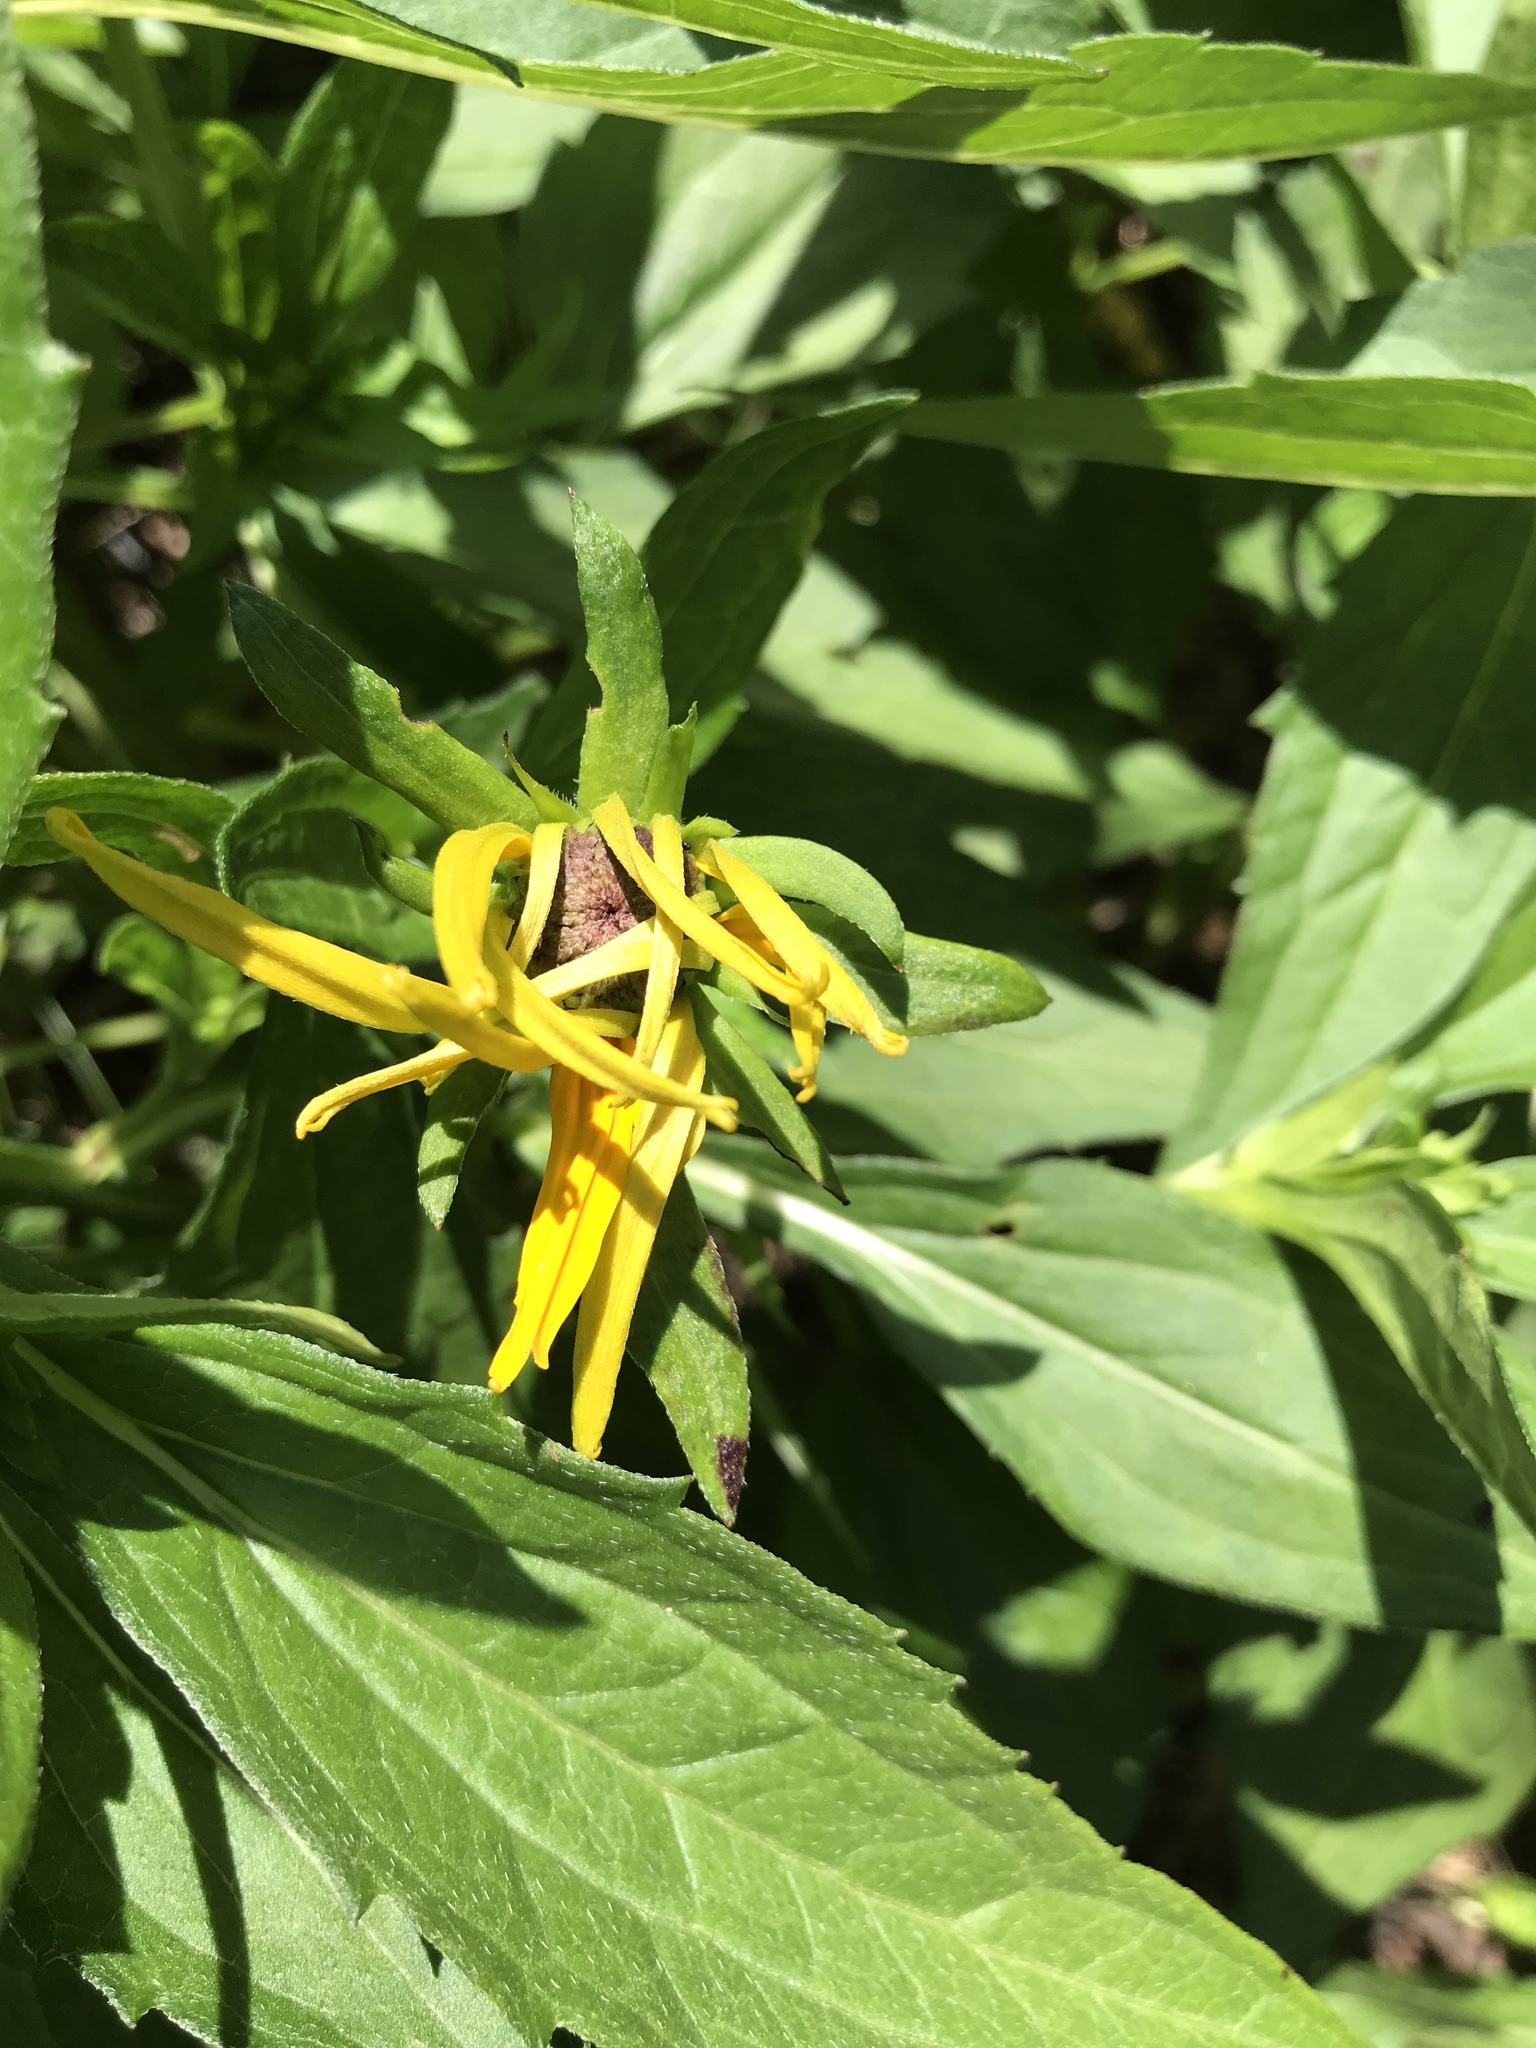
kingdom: Plantae
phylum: Tracheophyta
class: Magnoliopsida
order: Asterales
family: Asteraceae
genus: Rudbeckia
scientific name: Rudbeckia hirta
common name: Black-eyed-susan
